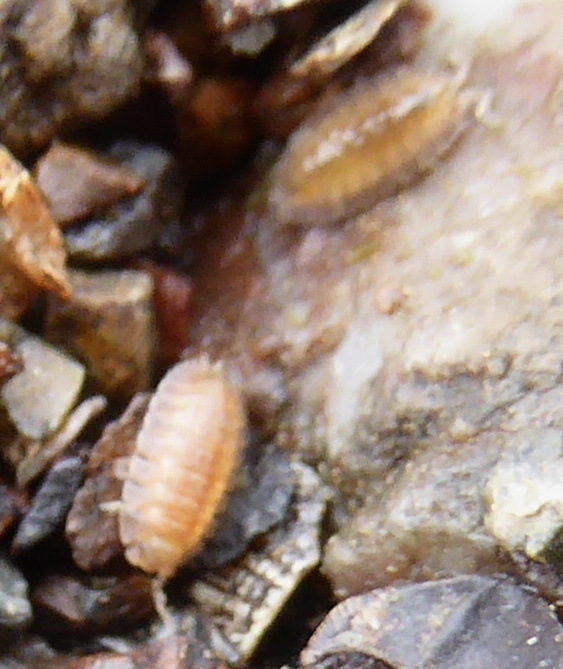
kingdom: Animalia
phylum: Arthropoda
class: Malacostraca
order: Isopoda
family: Detonidae
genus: Armadilloniscus
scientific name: Armadilloniscus holmesi
